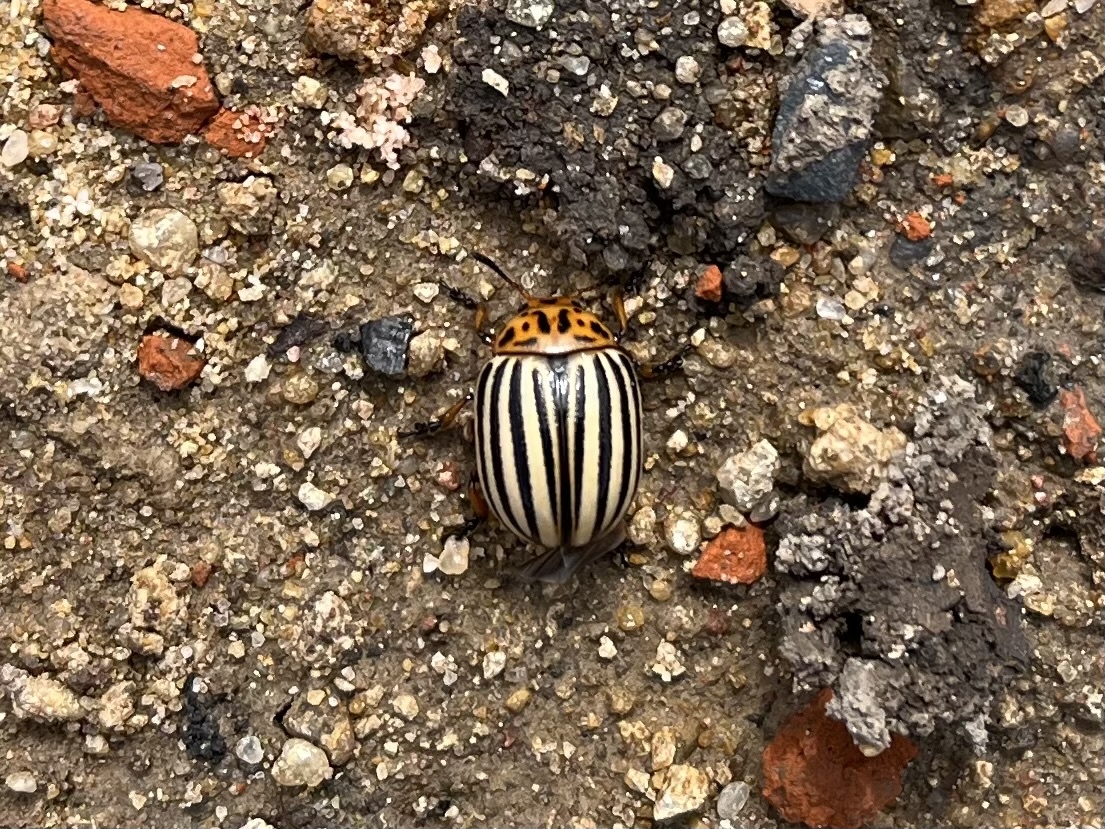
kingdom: Animalia
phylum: Arthropoda
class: Insecta
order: Coleoptera
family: Chrysomelidae
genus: Leptinotarsa
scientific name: Leptinotarsa decemlineata
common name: Colorado potato beetle
